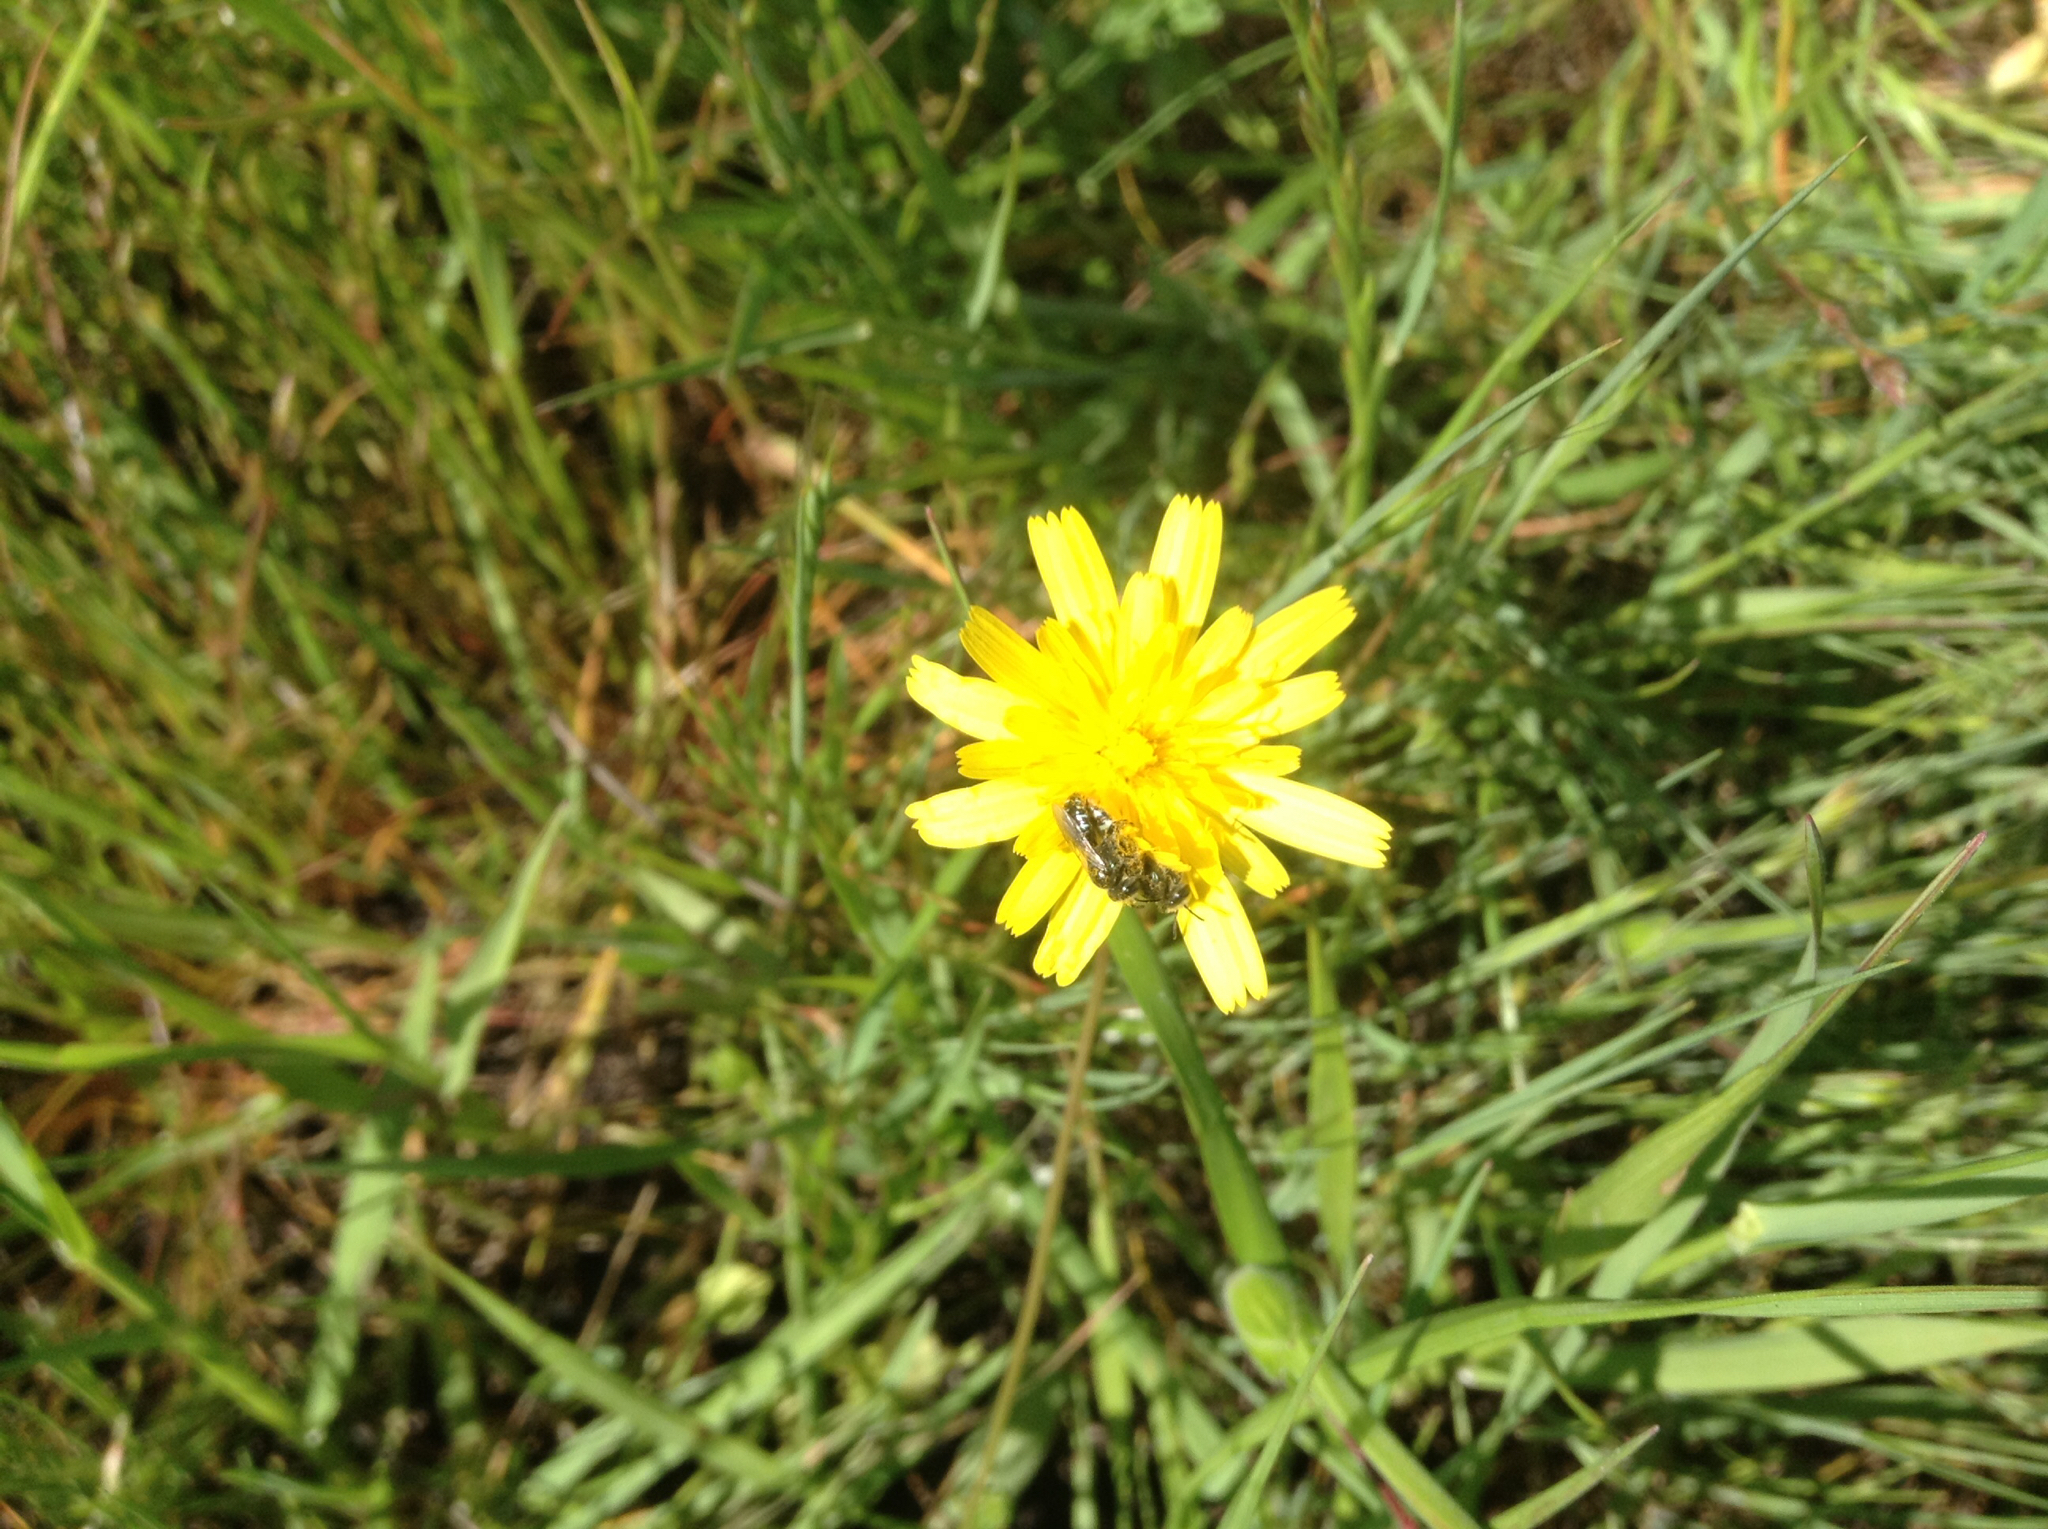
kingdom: Animalia
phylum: Arthropoda
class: Insecta
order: Hymenoptera
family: Andrenidae
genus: Perdita
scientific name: Perdita
